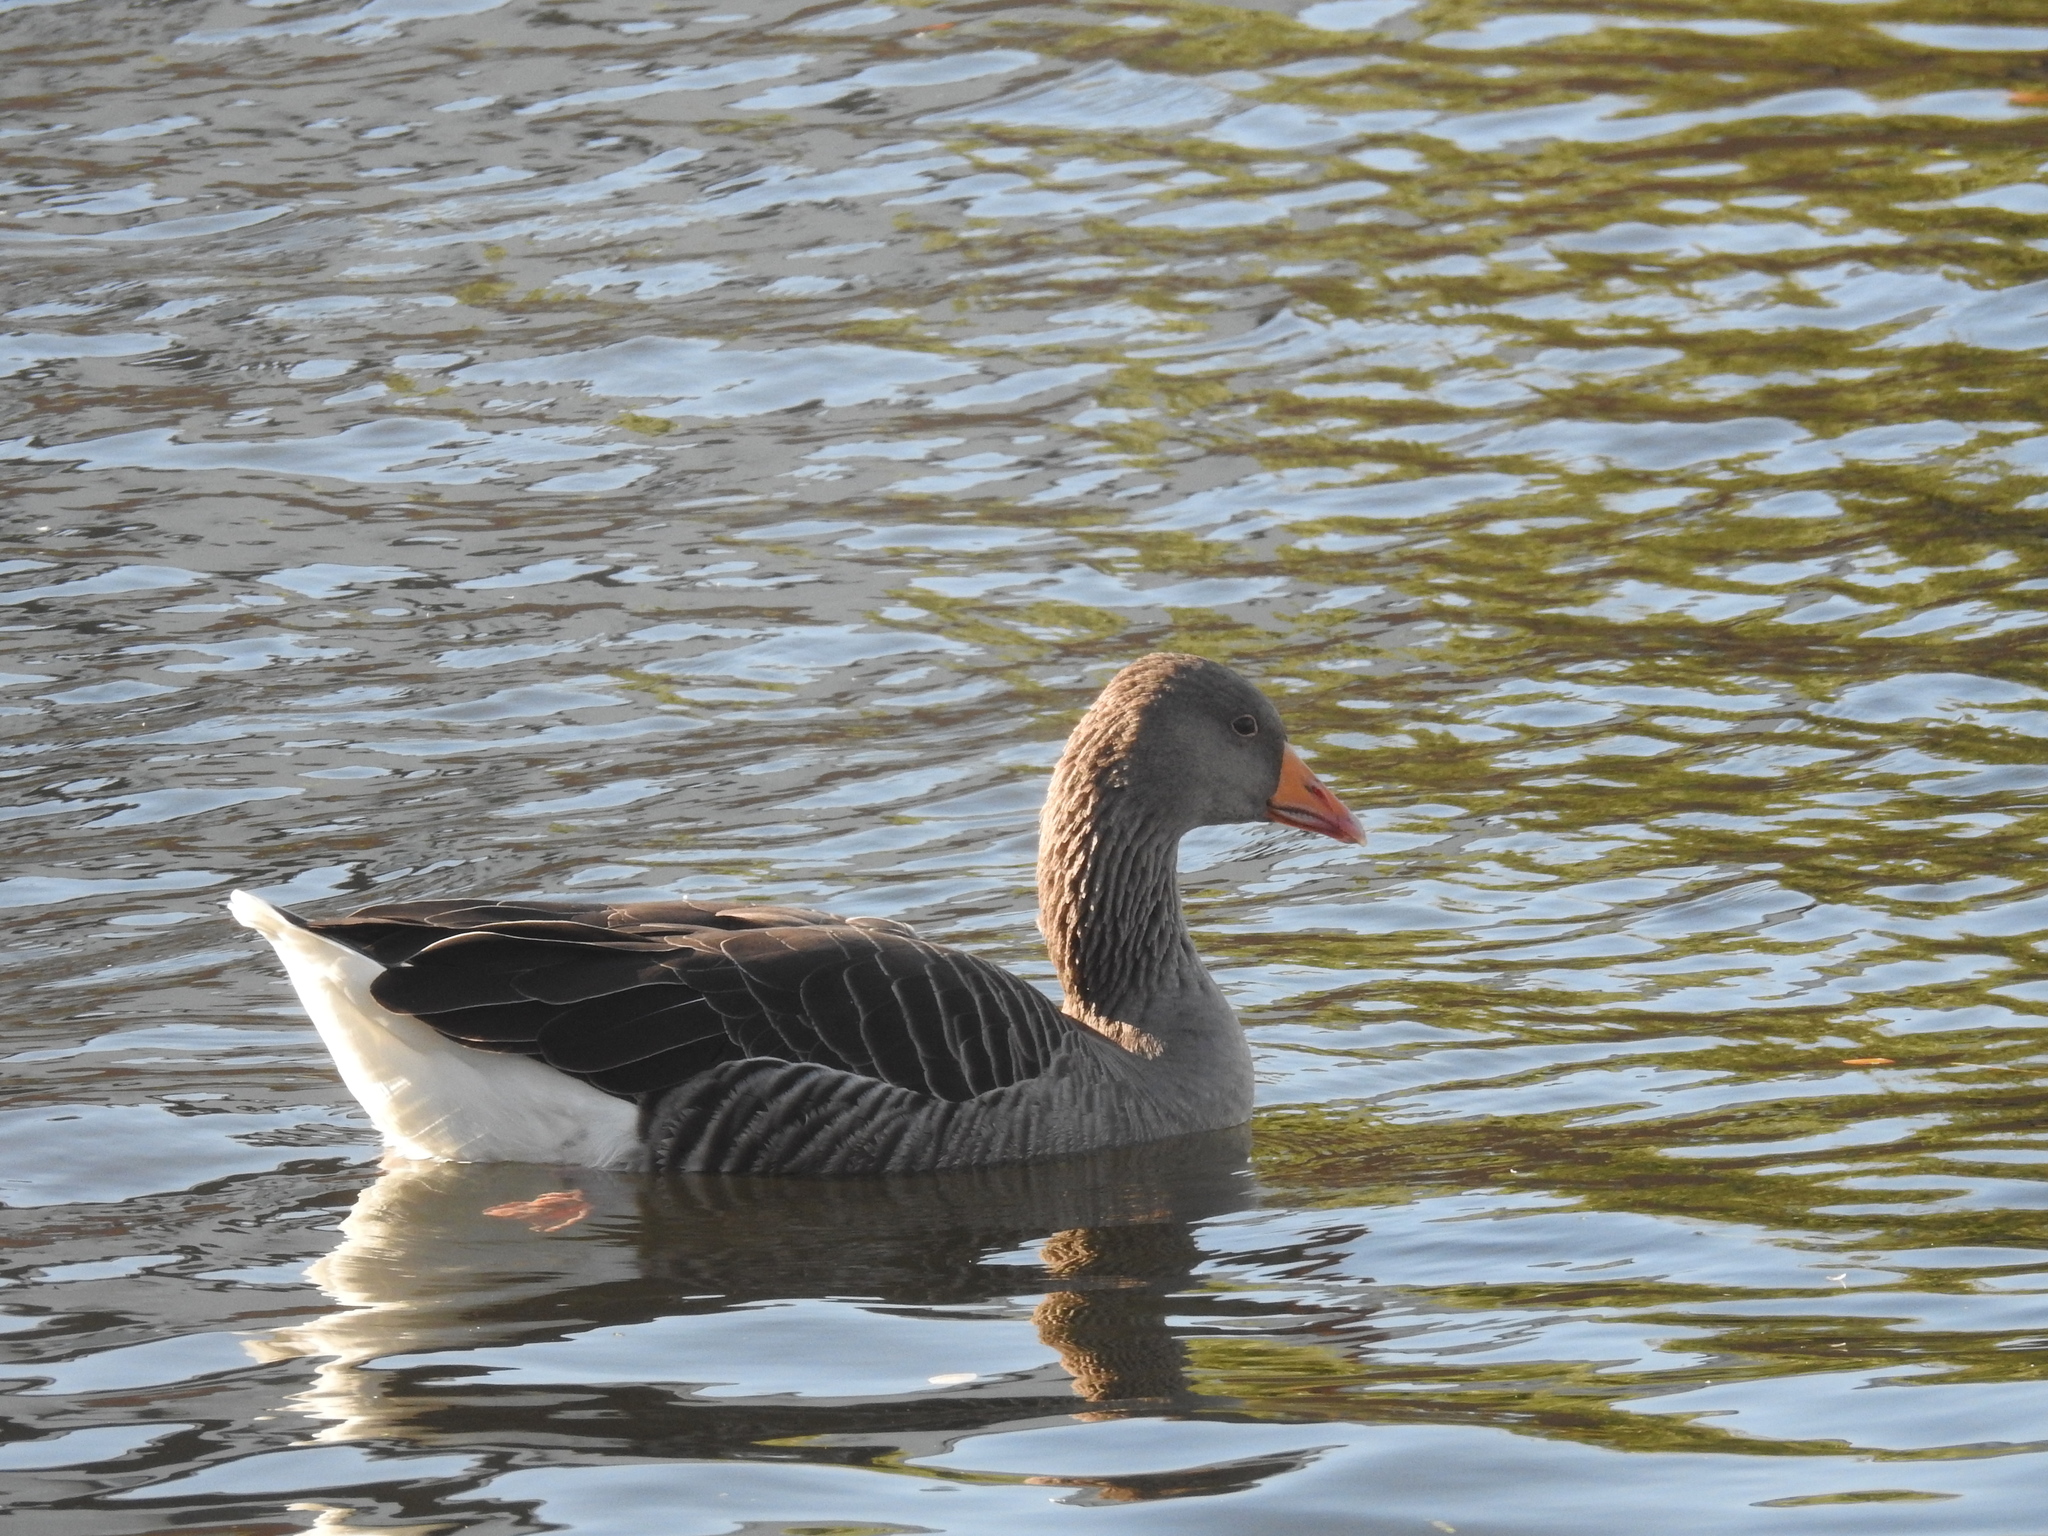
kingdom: Animalia
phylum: Chordata
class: Aves
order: Anseriformes
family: Anatidae
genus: Anser
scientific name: Anser anser
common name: Greylag goose
